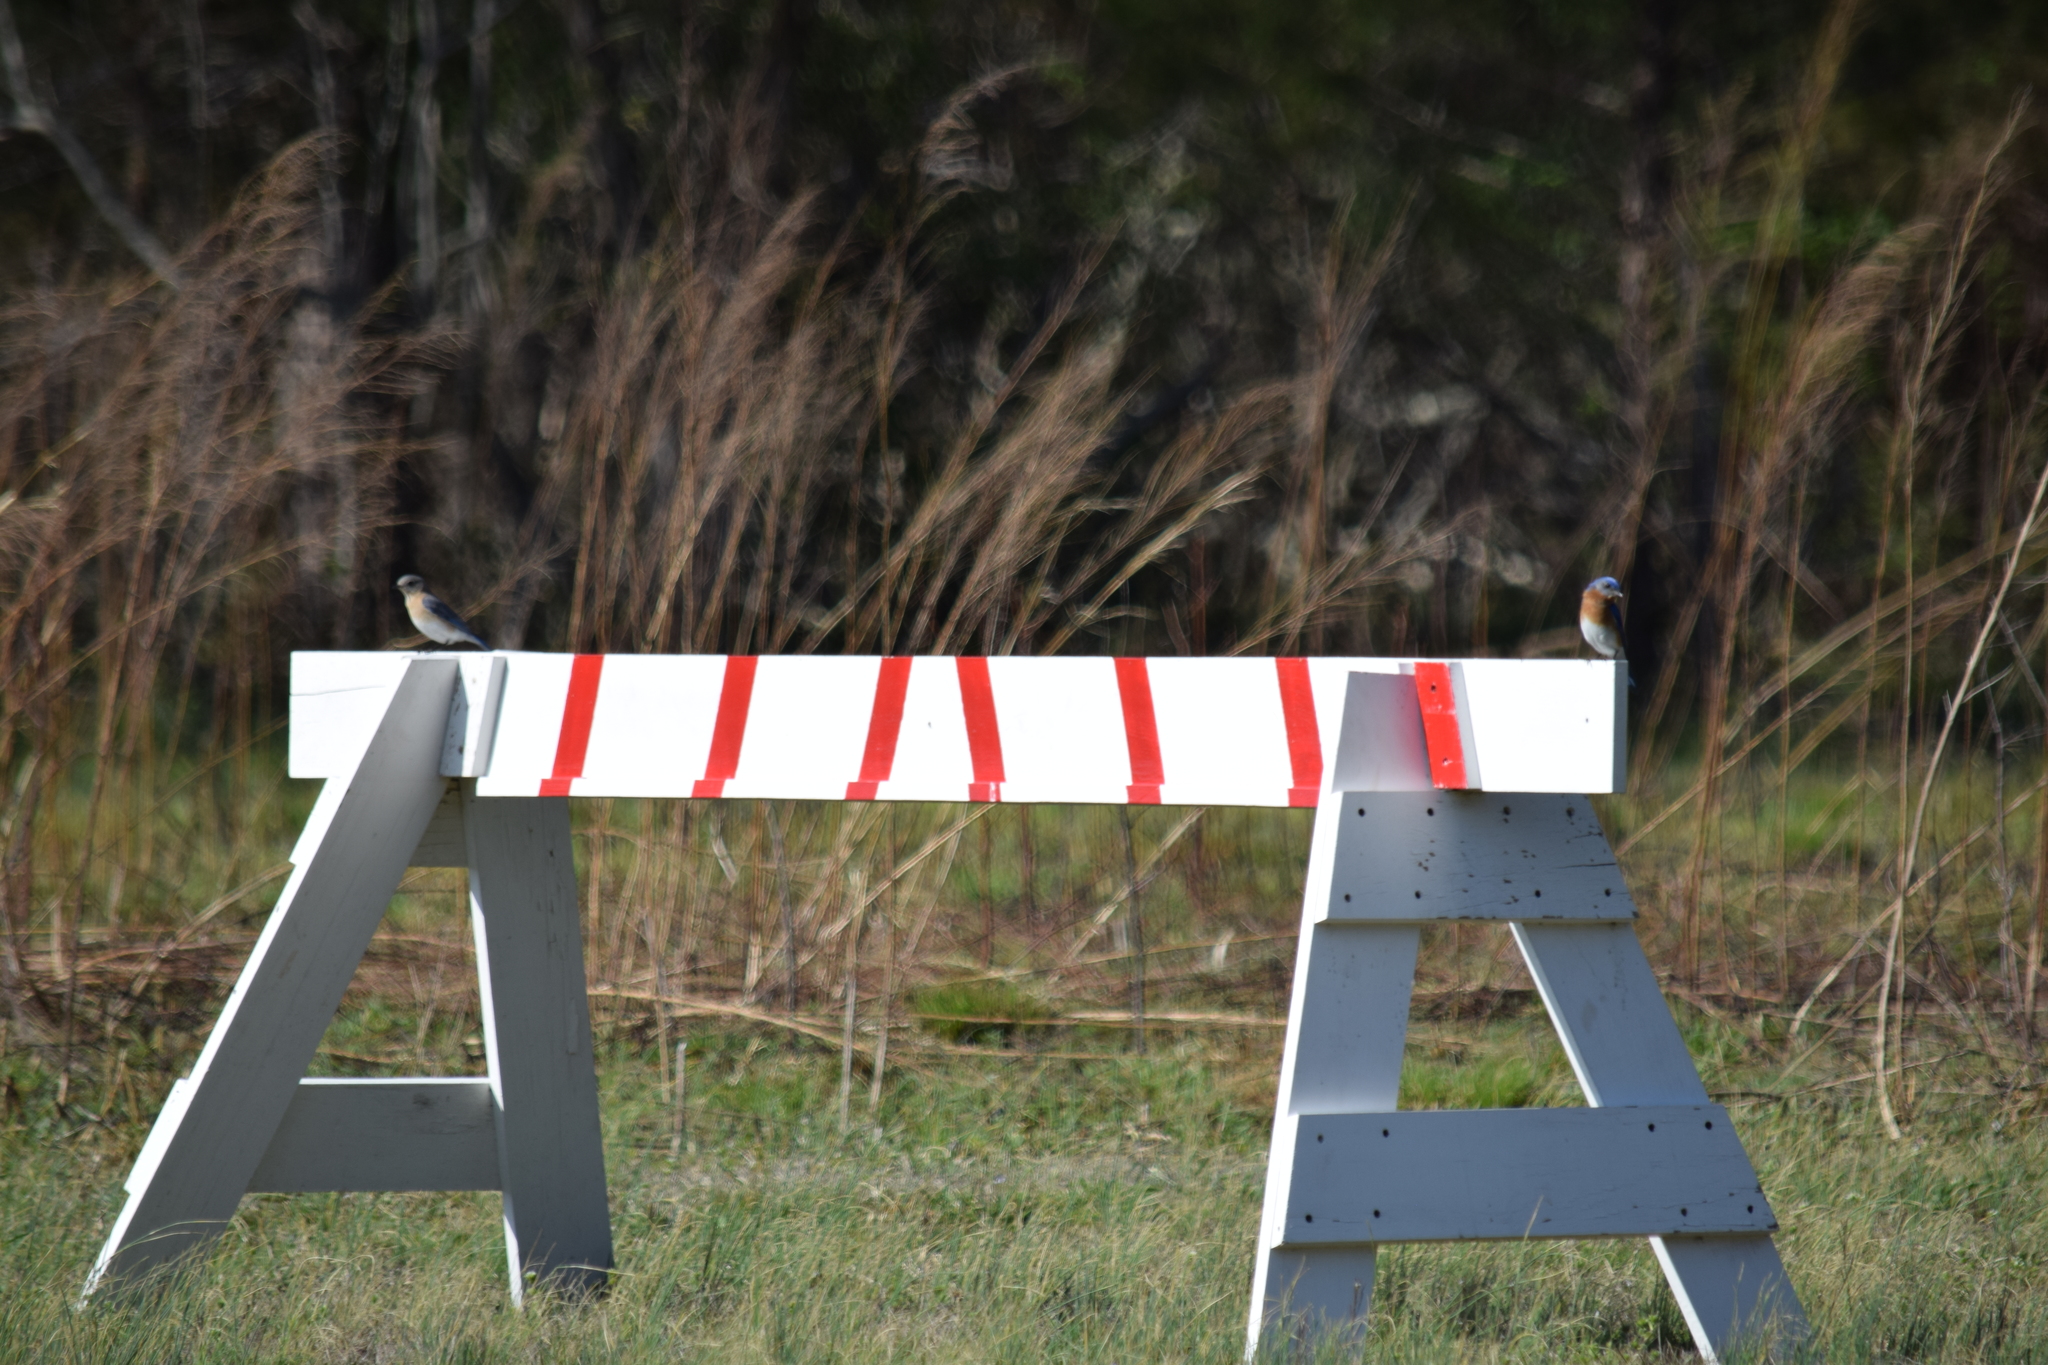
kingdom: Animalia
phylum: Chordata
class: Aves
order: Passeriformes
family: Turdidae
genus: Sialia
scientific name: Sialia sialis
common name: Eastern bluebird
